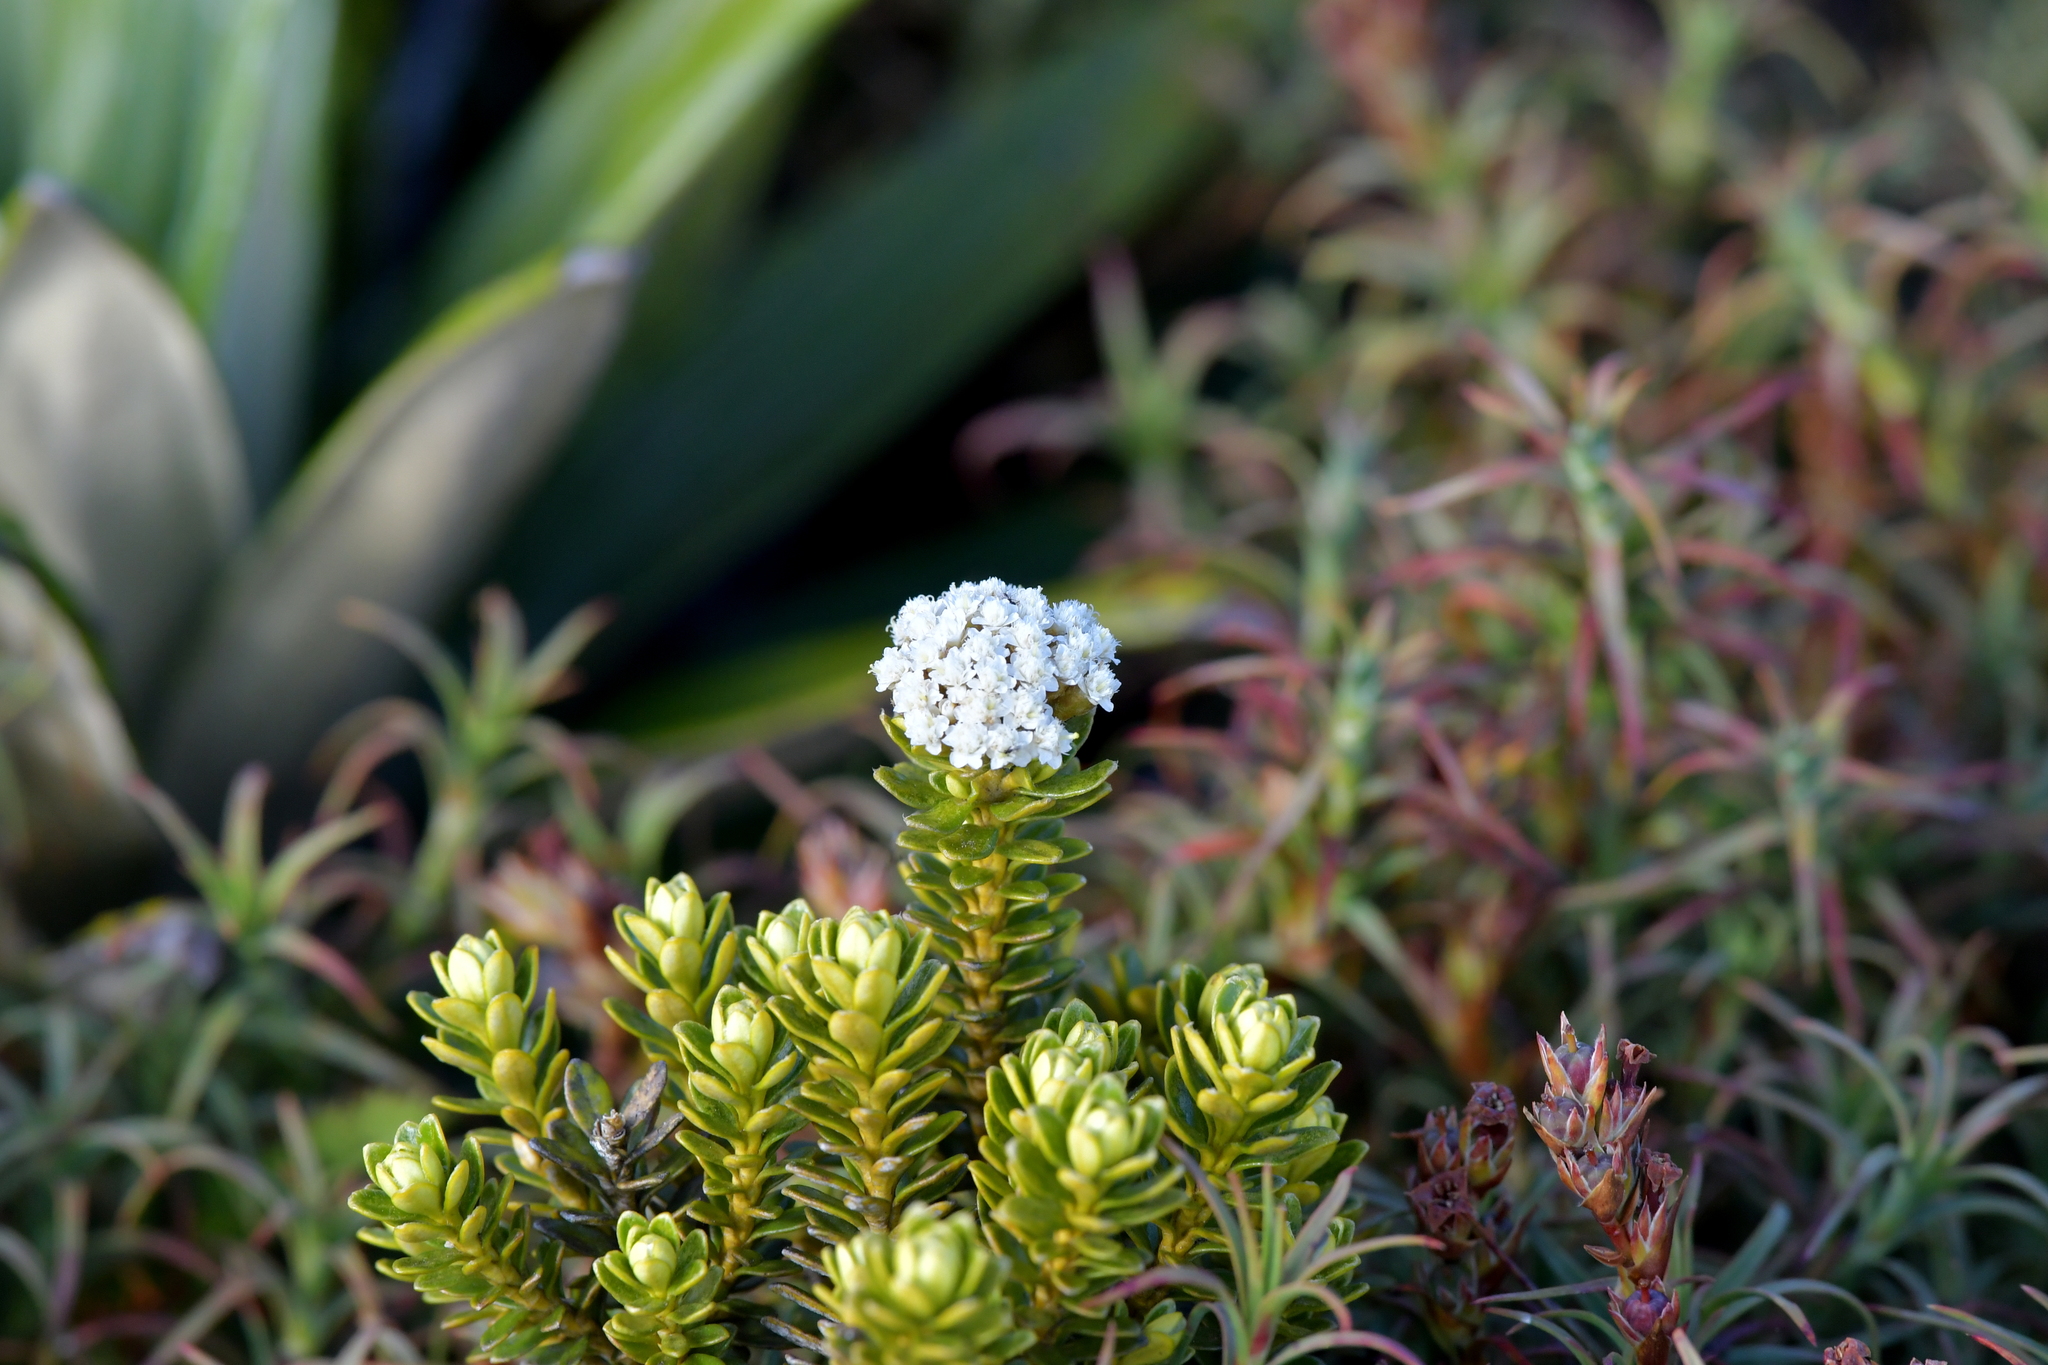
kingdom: Plantae
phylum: Tracheophyta
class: Magnoliopsida
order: Asterales
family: Asteraceae
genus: Ozothamnus
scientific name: Ozothamnus leptophyllus
